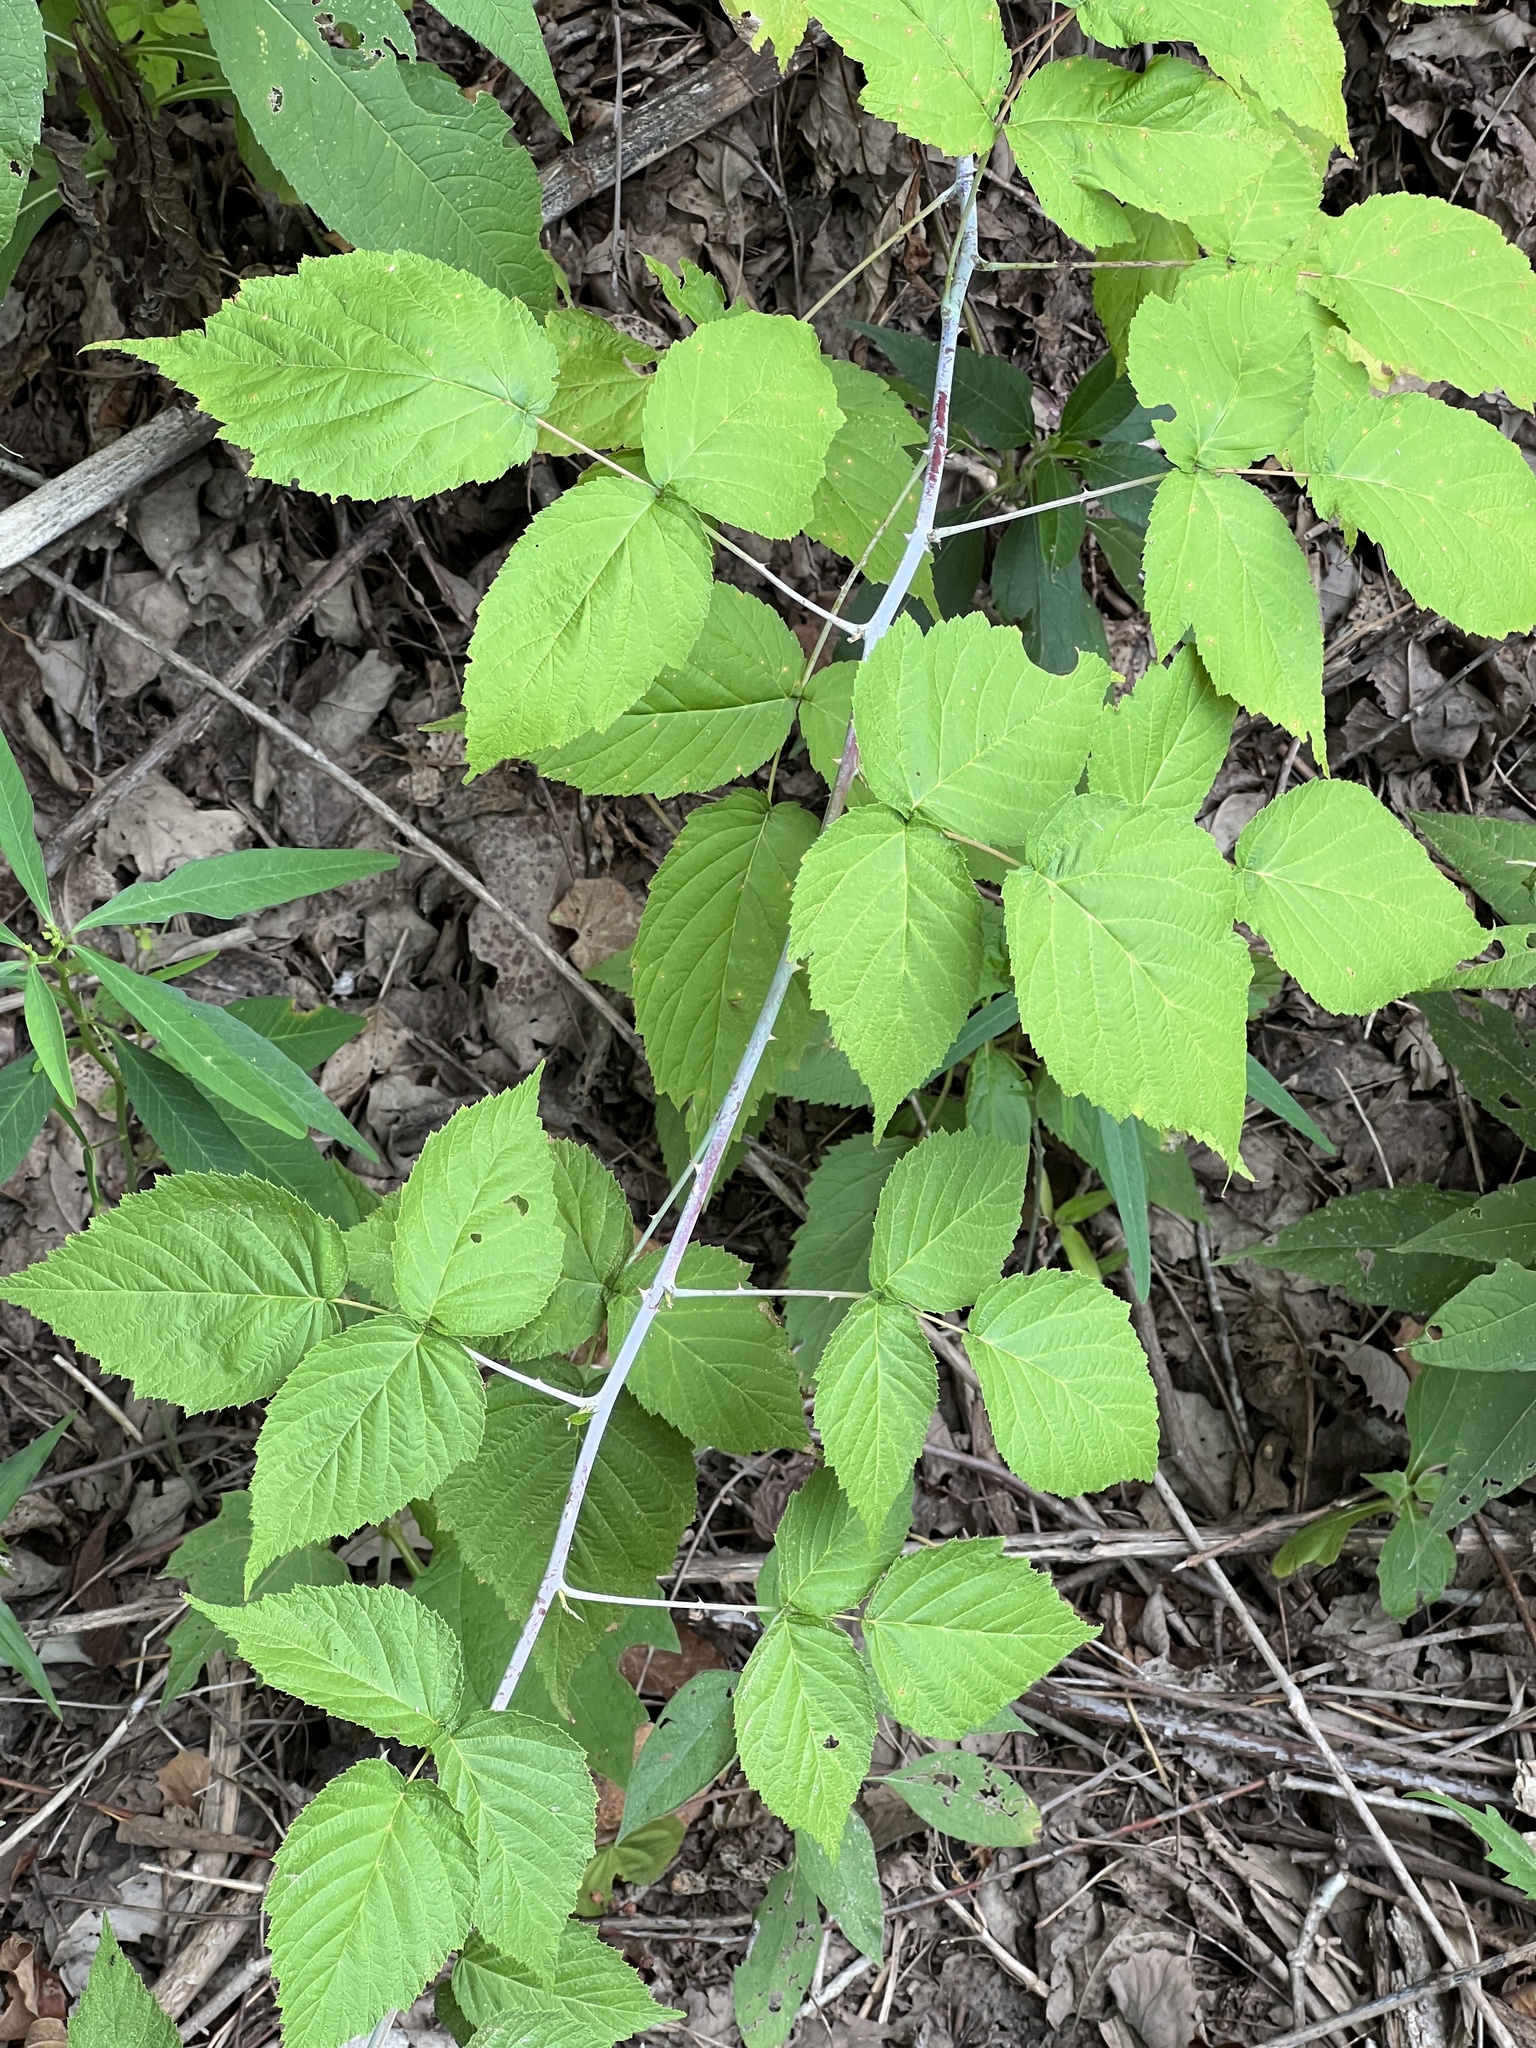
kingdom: Plantae
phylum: Tracheophyta
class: Magnoliopsida
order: Rosales
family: Rosaceae
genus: Rubus
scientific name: Rubus occidentalis
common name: Black raspberry
